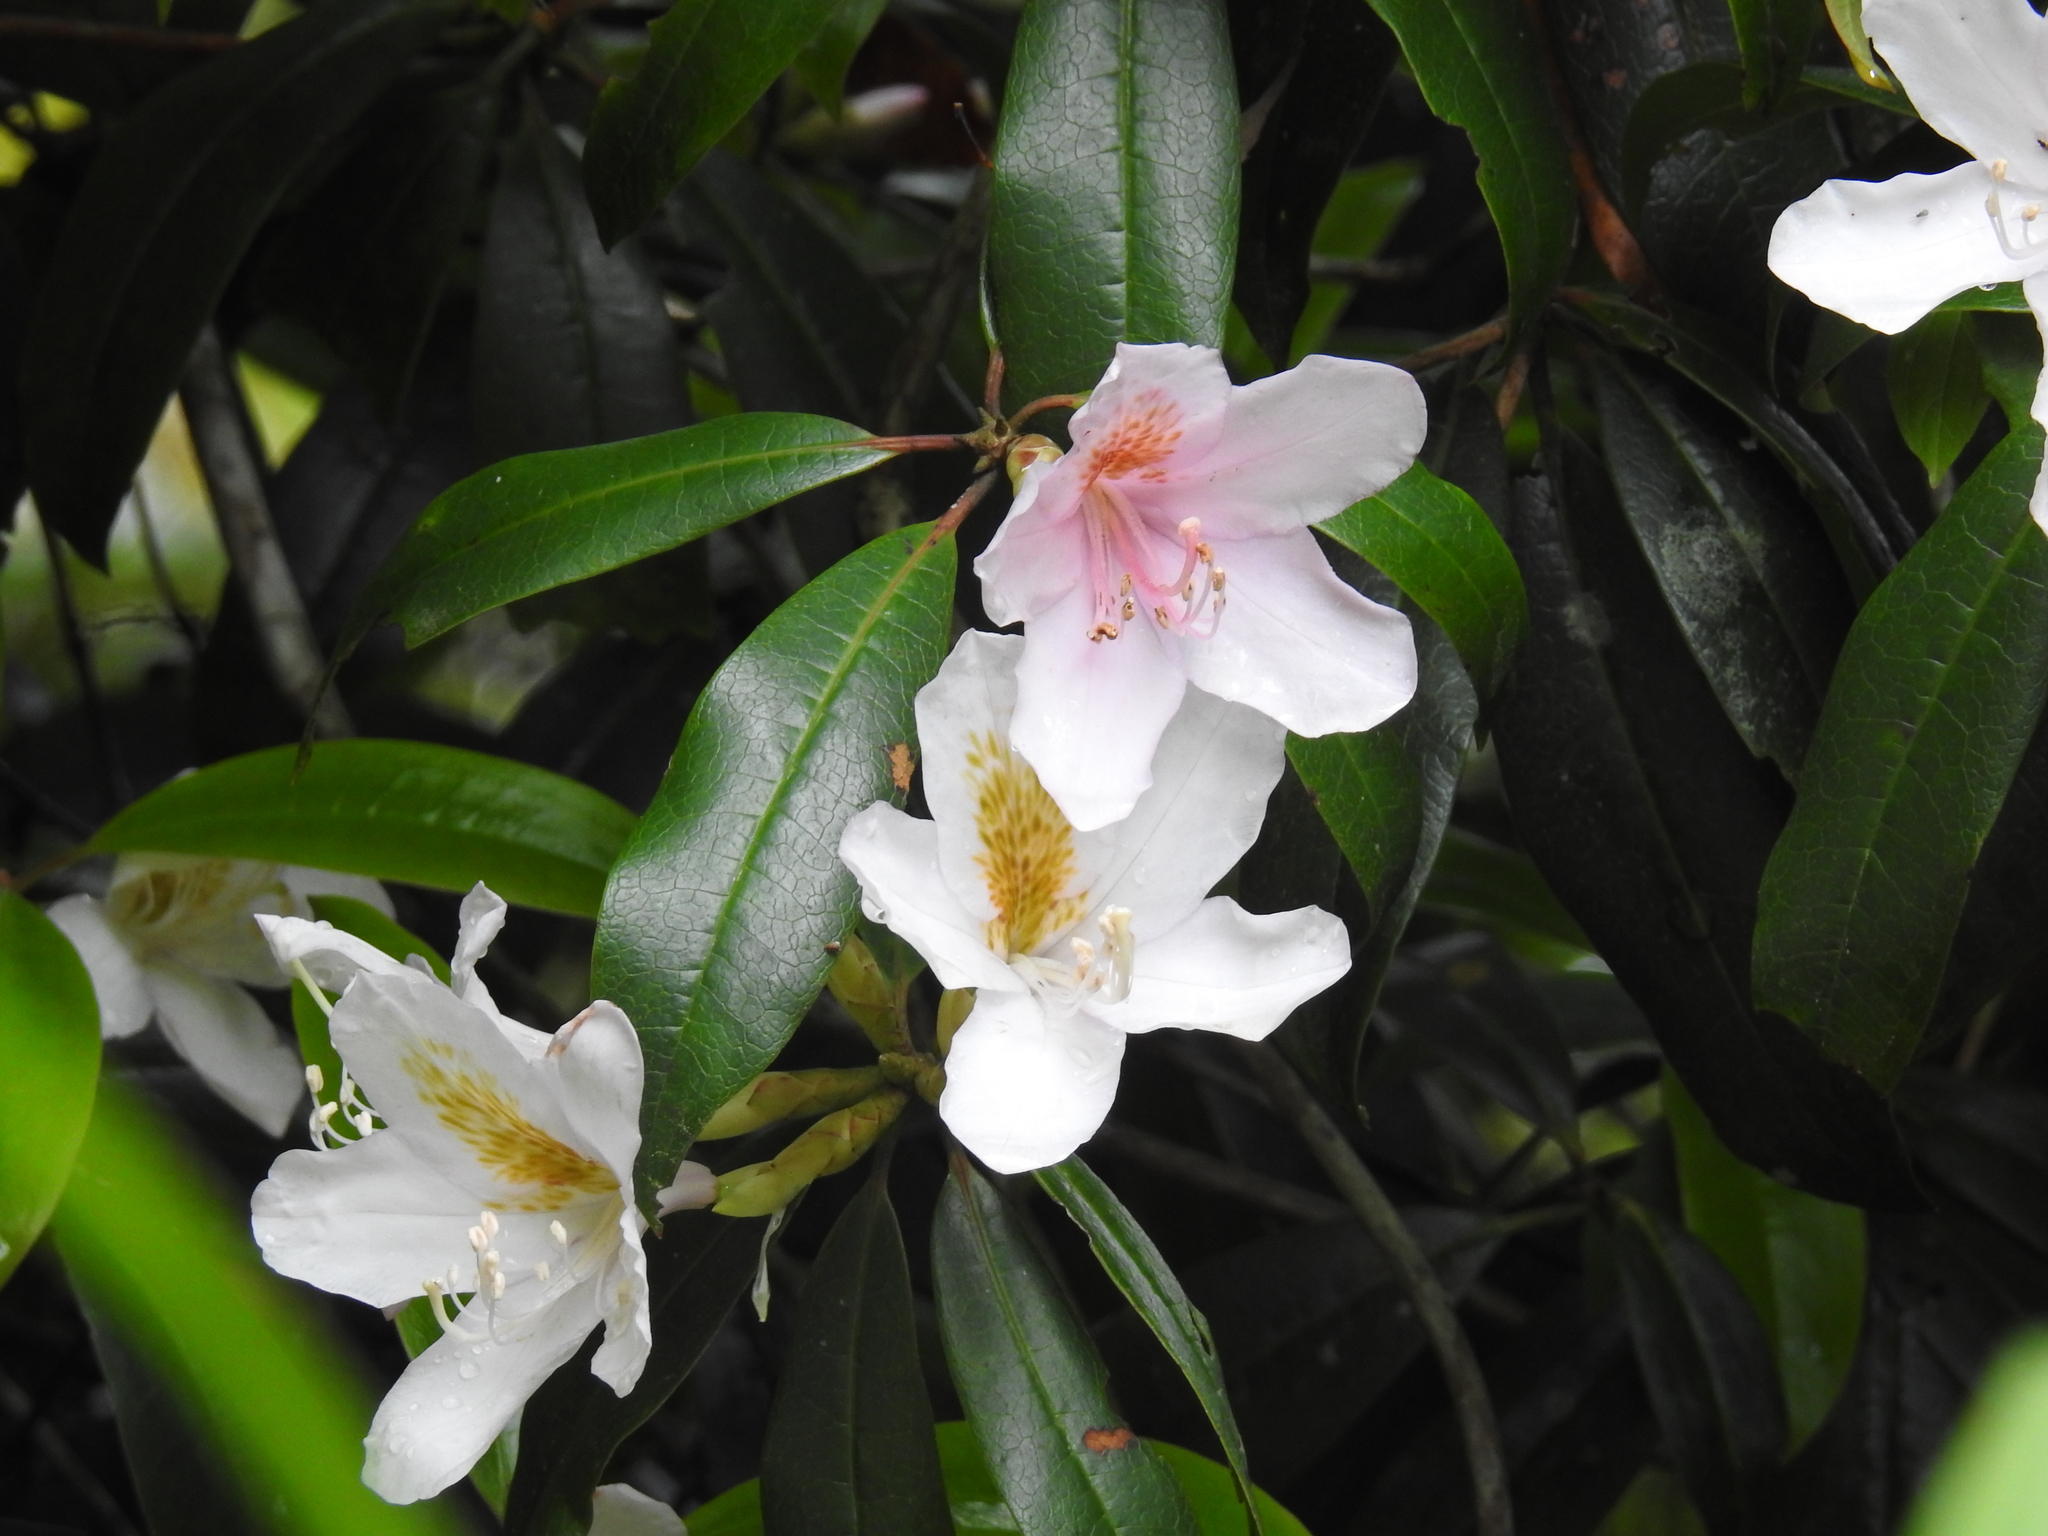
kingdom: Plantae
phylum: Tracheophyta
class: Magnoliopsida
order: Ericales
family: Ericaceae
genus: Rhododendron
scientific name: Rhododendron latoucheae
